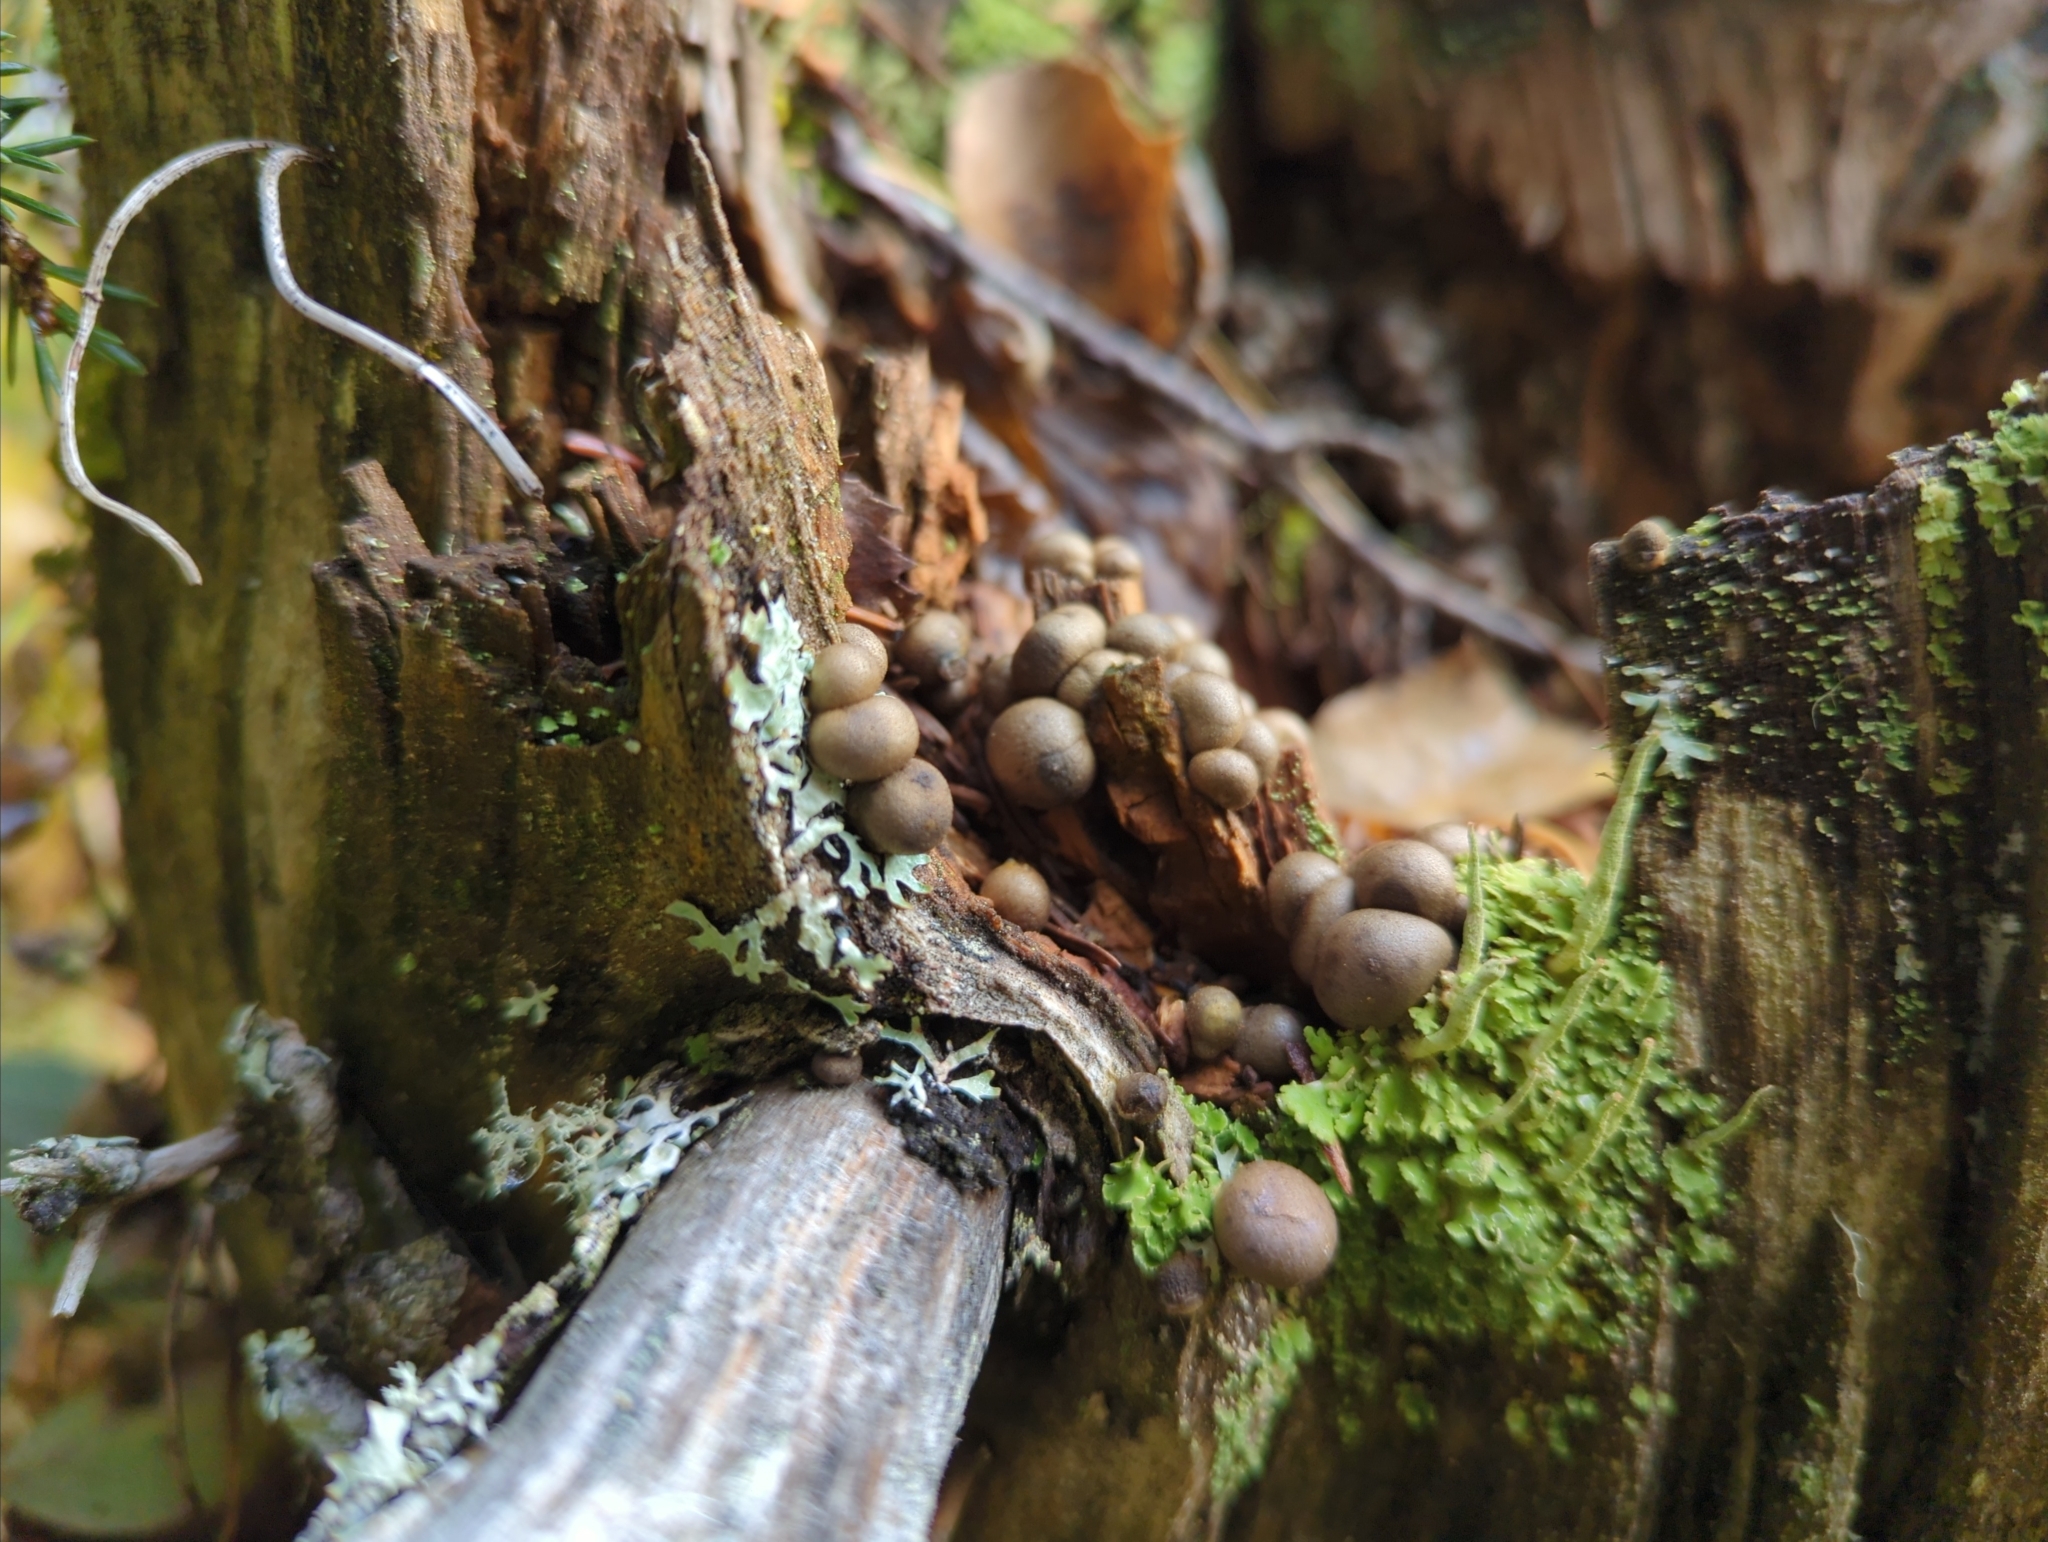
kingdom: Protozoa
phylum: Mycetozoa
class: Myxomycetes
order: Cribrariales
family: Tubiferaceae
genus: Lycogala
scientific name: Lycogala epidendrum
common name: Wolf's milk
